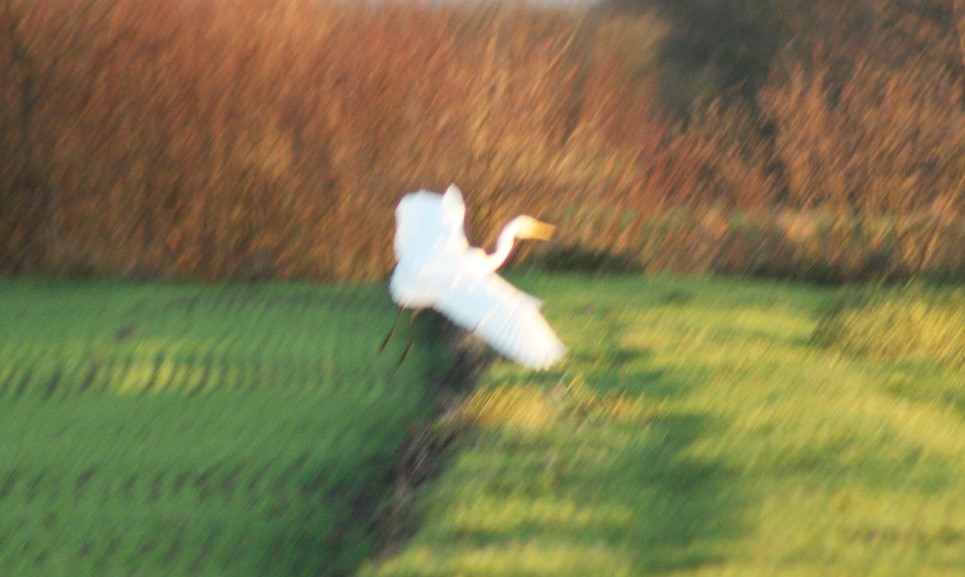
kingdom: Animalia
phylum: Chordata
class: Aves
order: Pelecaniformes
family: Ardeidae
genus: Ardea
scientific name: Ardea alba
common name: Great egret
